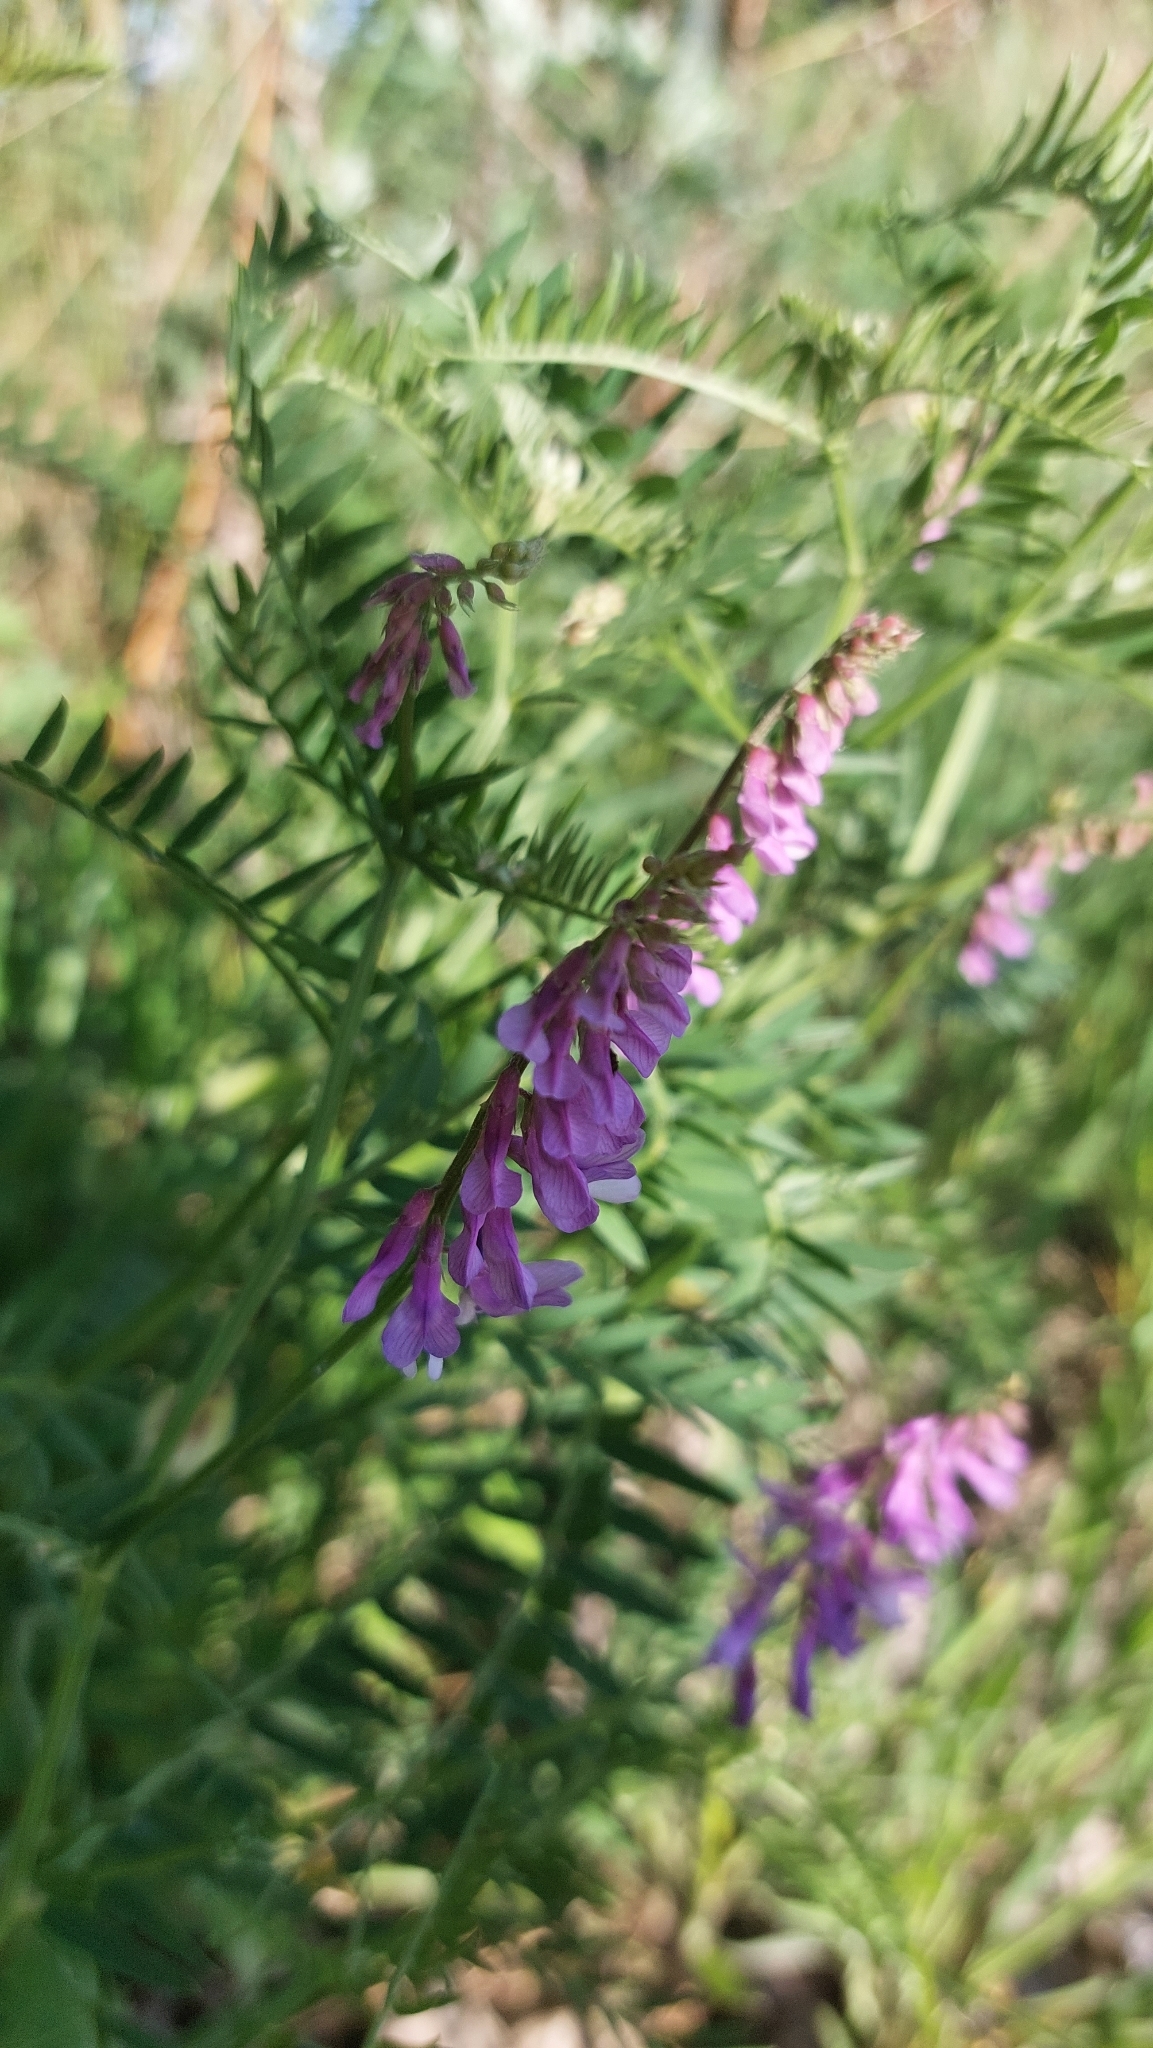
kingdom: Plantae
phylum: Tracheophyta
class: Magnoliopsida
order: Fabales
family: Fabaceae
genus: Vicia
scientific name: Vicia cracca
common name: Bird vetch
